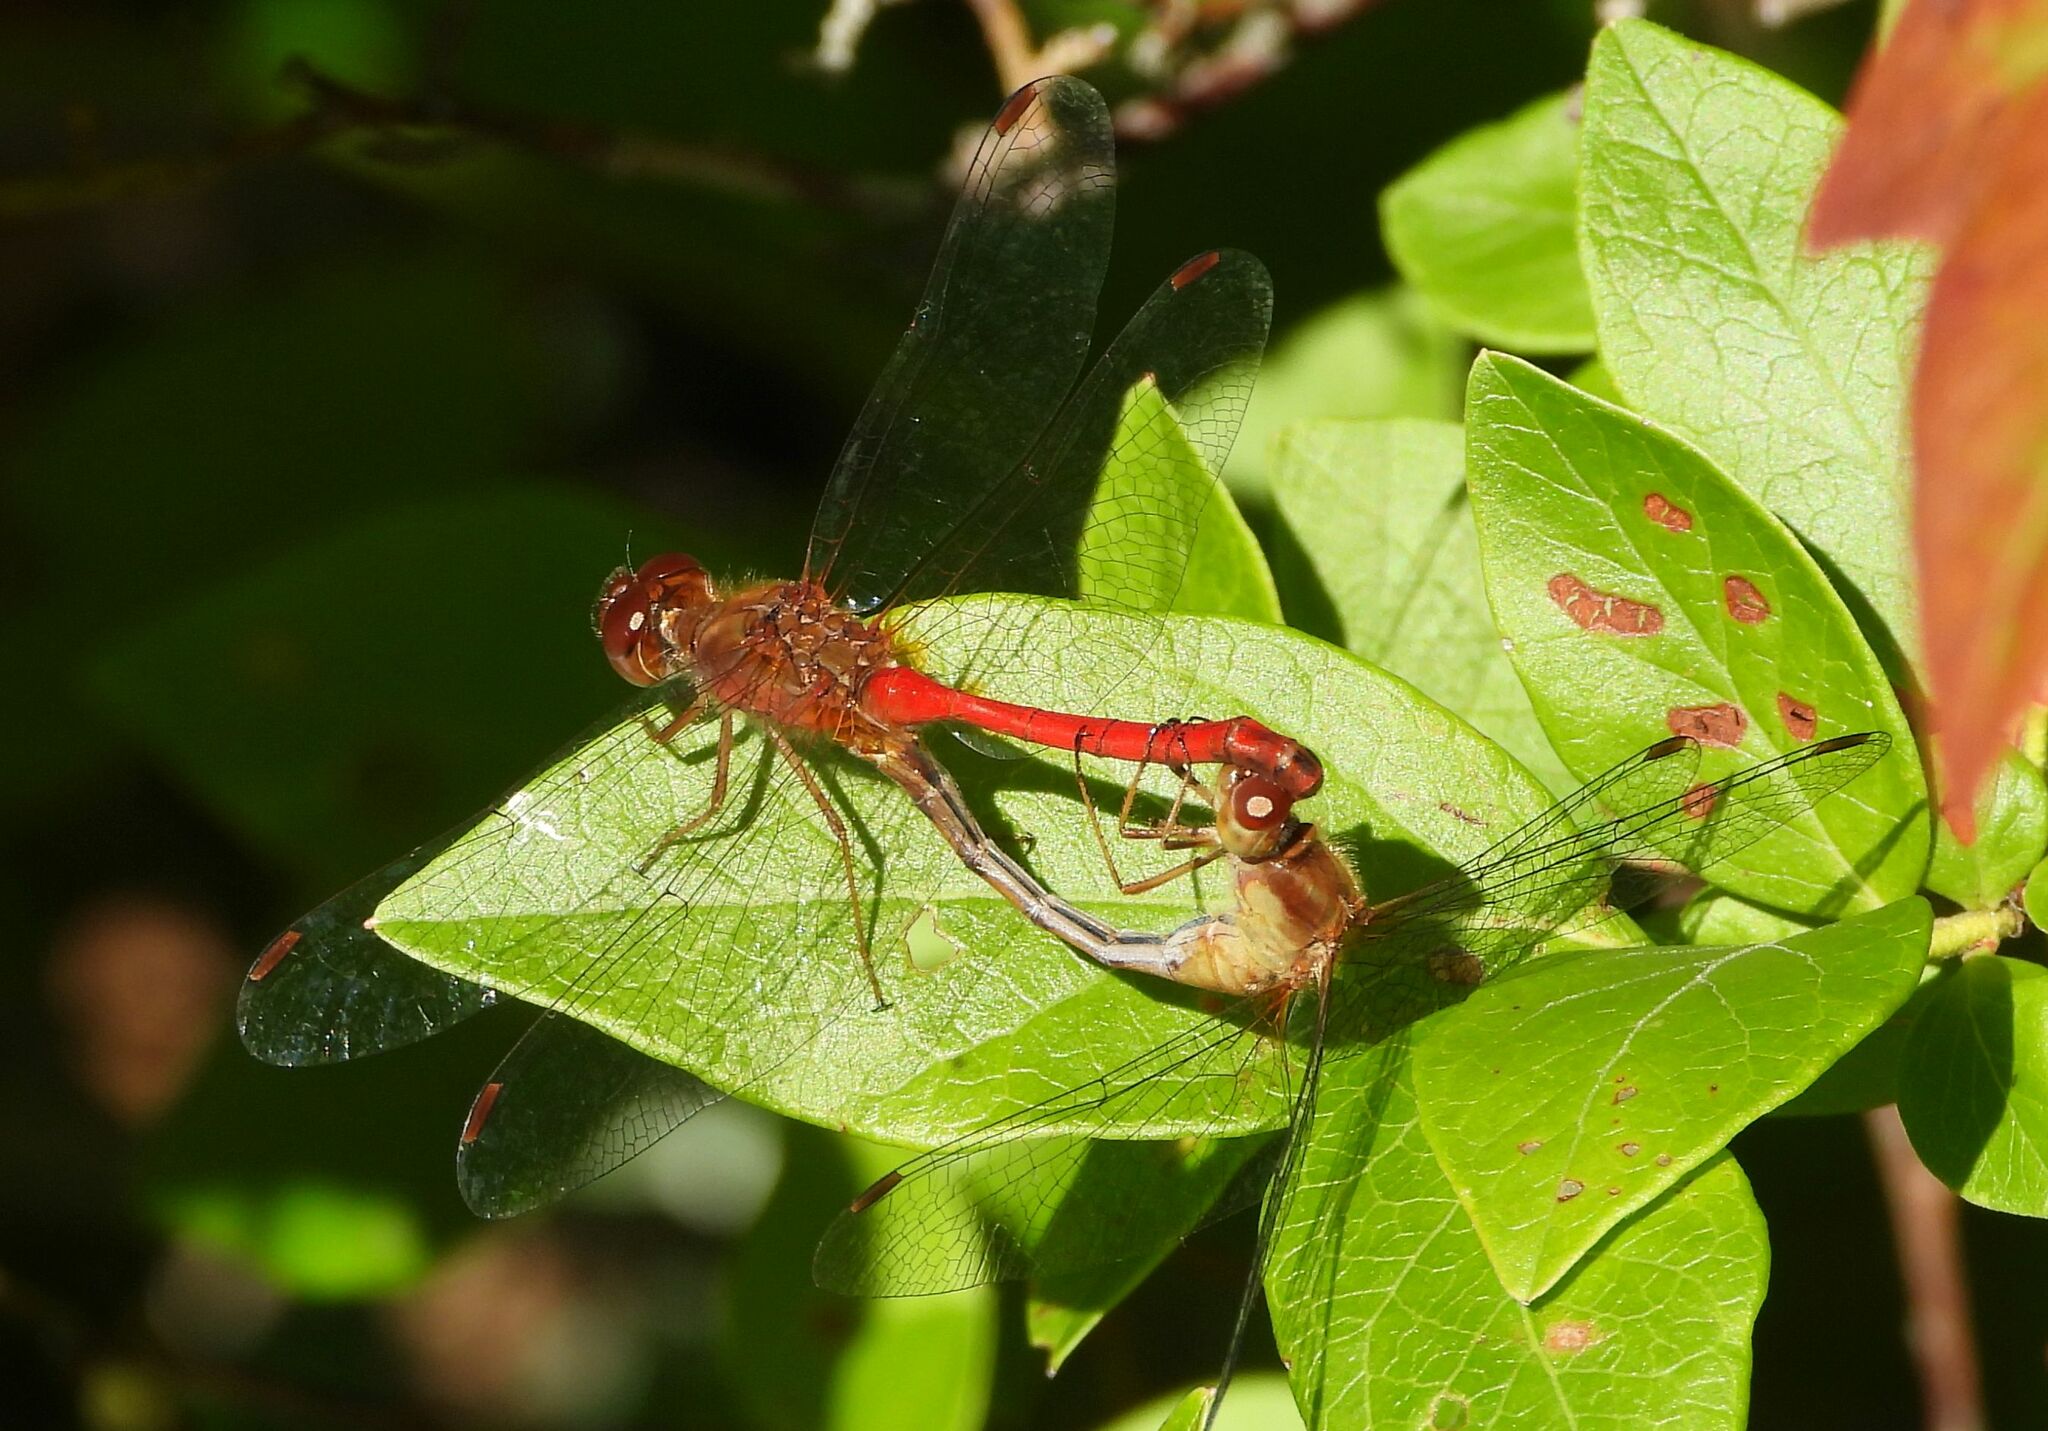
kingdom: Animalia
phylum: Arthropoda
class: Insecta
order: Odonata
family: Libellulidae
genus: Sympetrum
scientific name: Sympetrum vicinum
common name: Autumn meadowhawk
